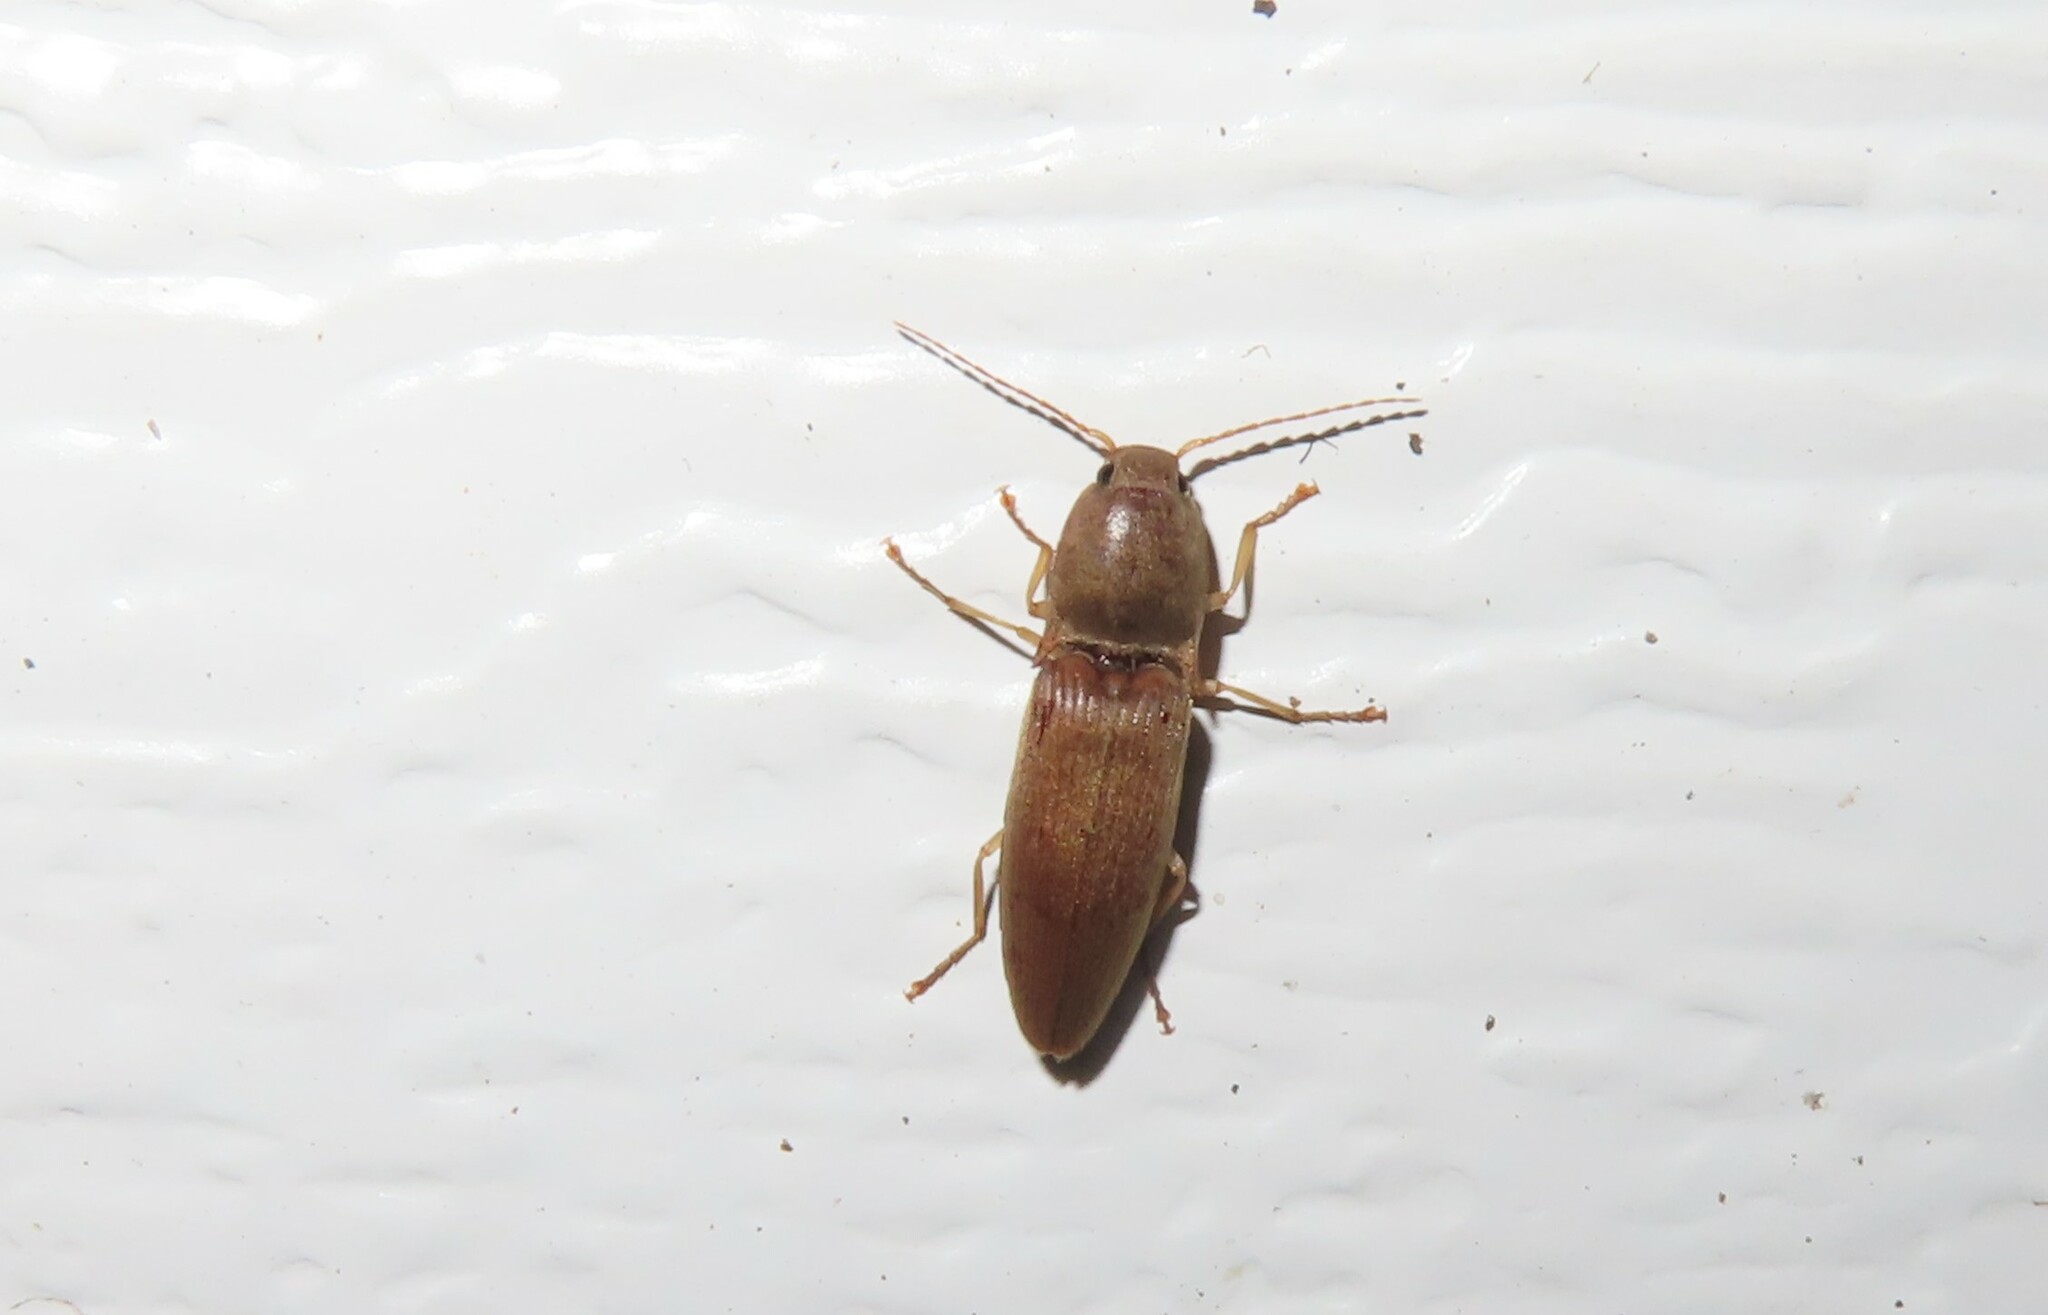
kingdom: Animalia
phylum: Arthropoda
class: Insecta
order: Coleoptera
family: Elateridae
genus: Monocrepidius
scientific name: Monocrepidius lividus
